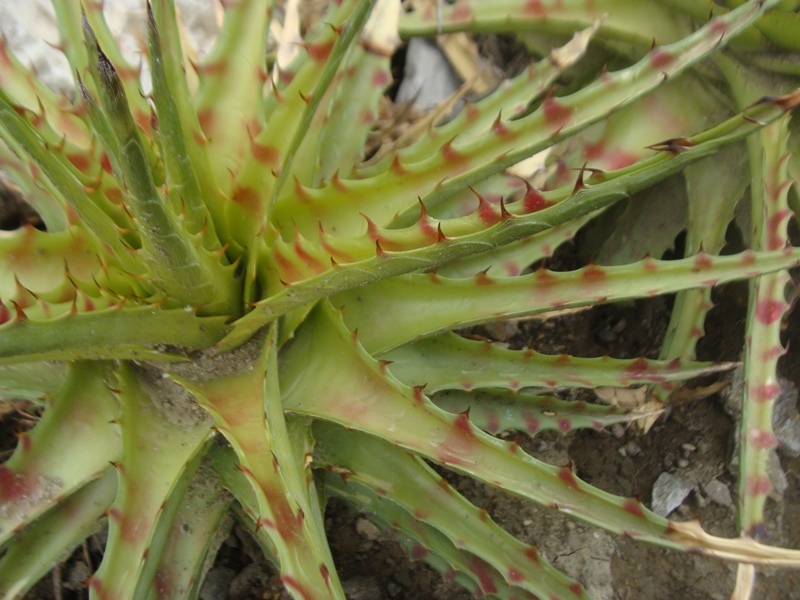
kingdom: Plantae
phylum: Tracheophyta
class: Liliopsida
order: Poales
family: Bromeliaceae
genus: Hechtia
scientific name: Hechtia roseana
